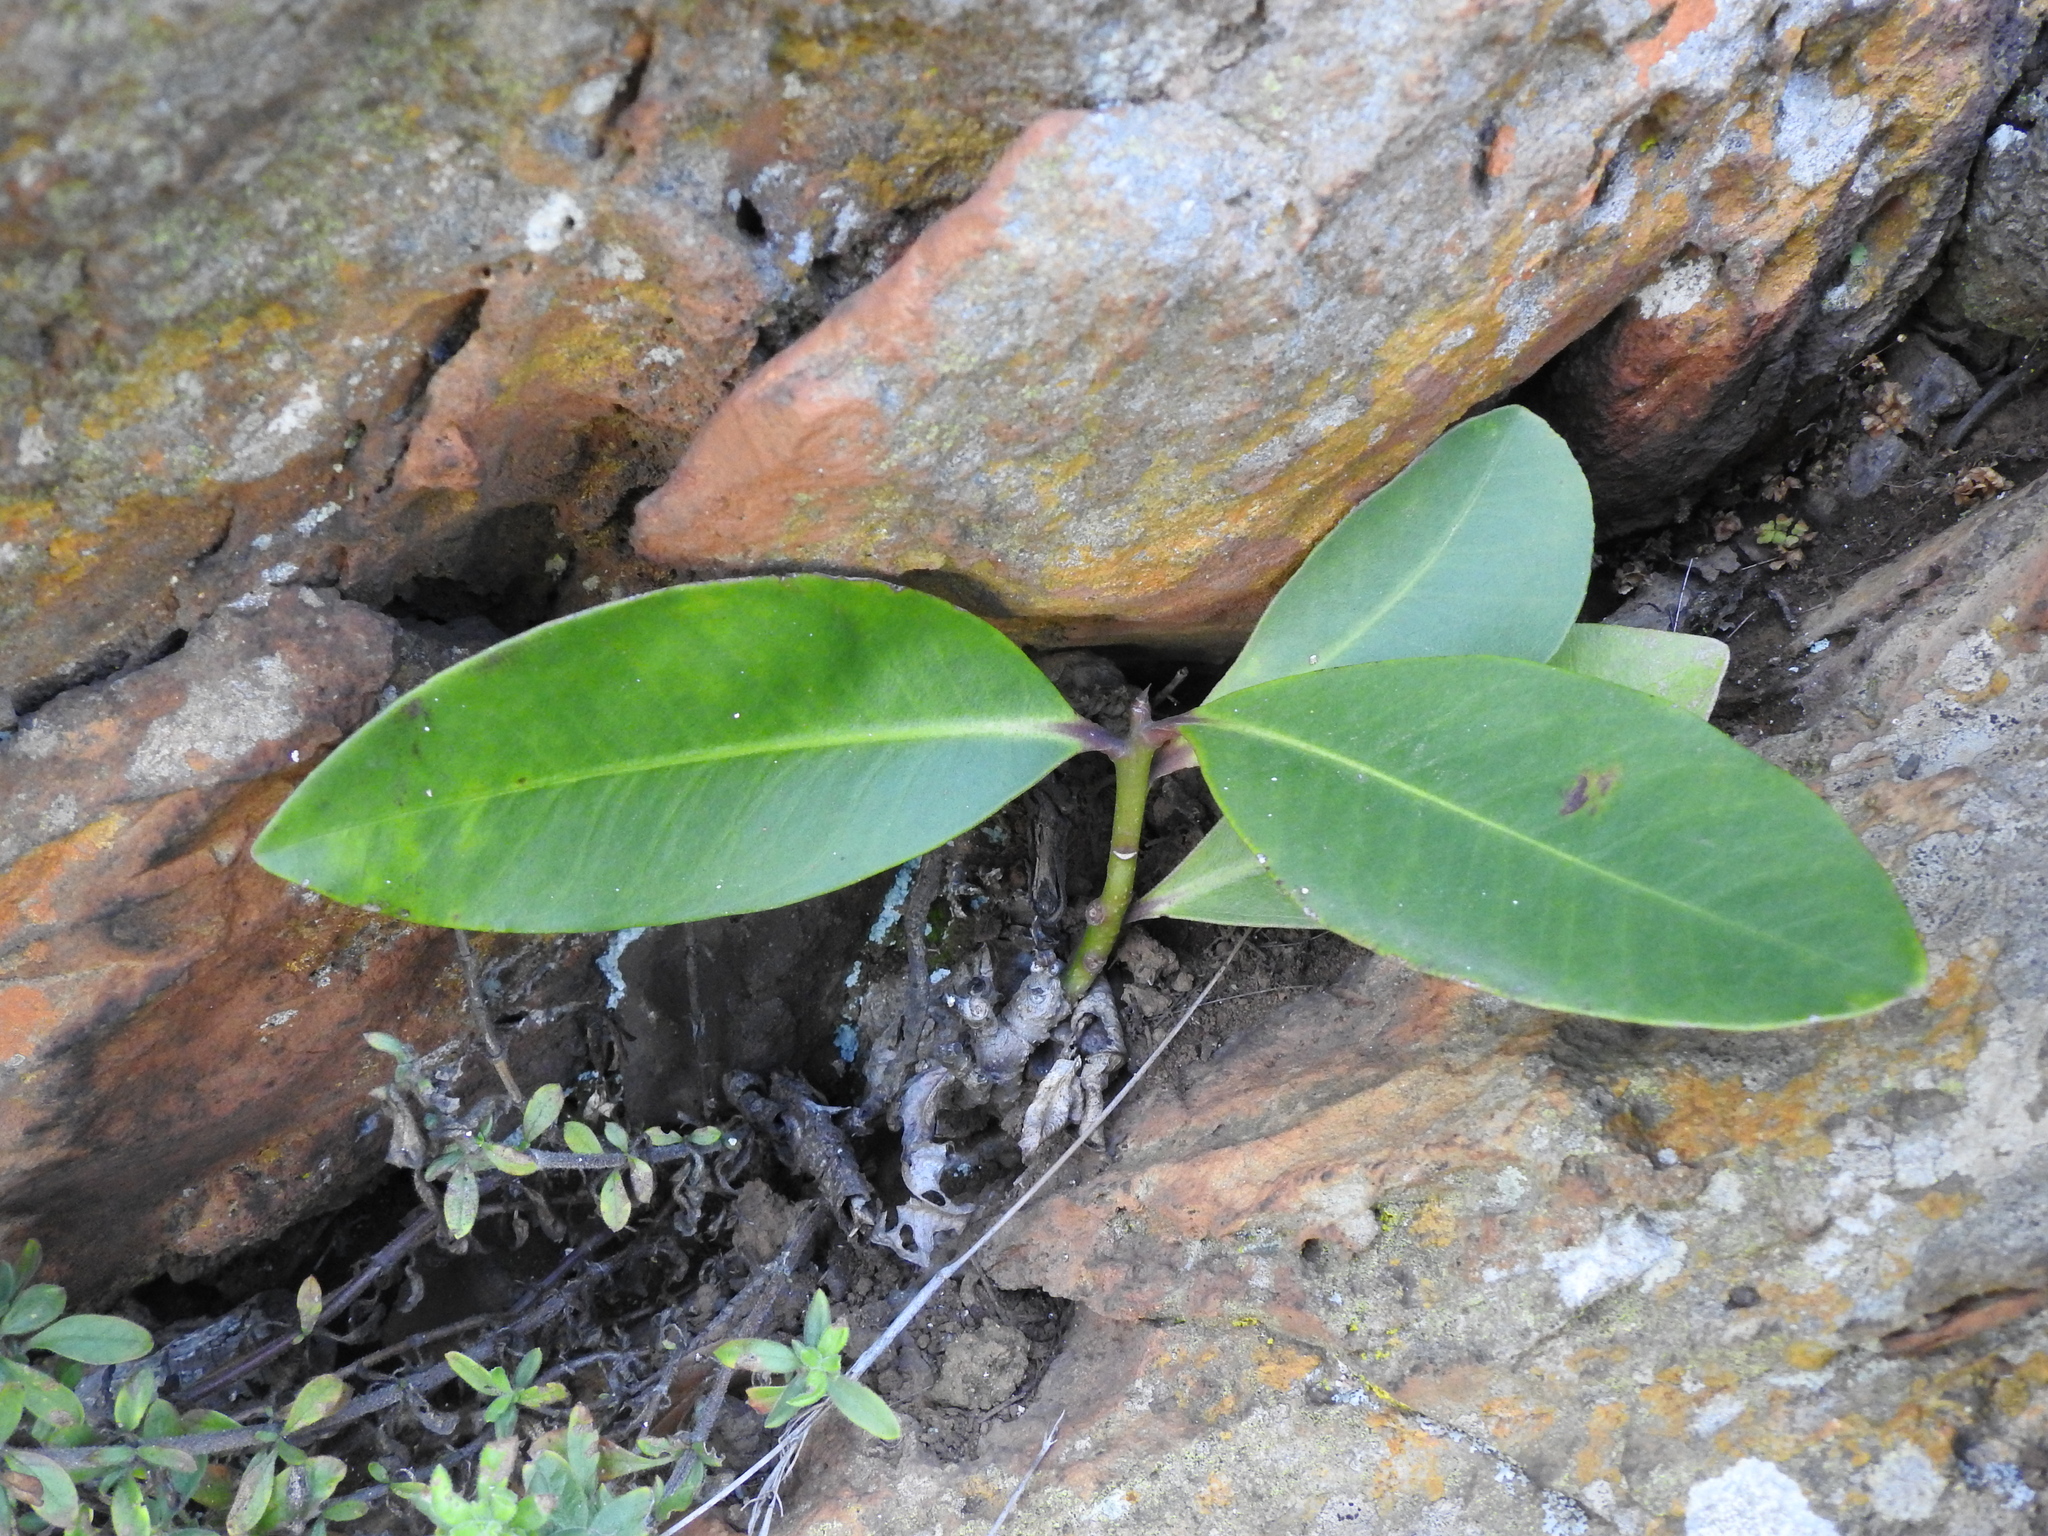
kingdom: Plantae
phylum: Tracheophyta
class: Magnoliopsida
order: Ericales
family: Primulaceae
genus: Myrsine
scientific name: Myrsine melanophloeos
